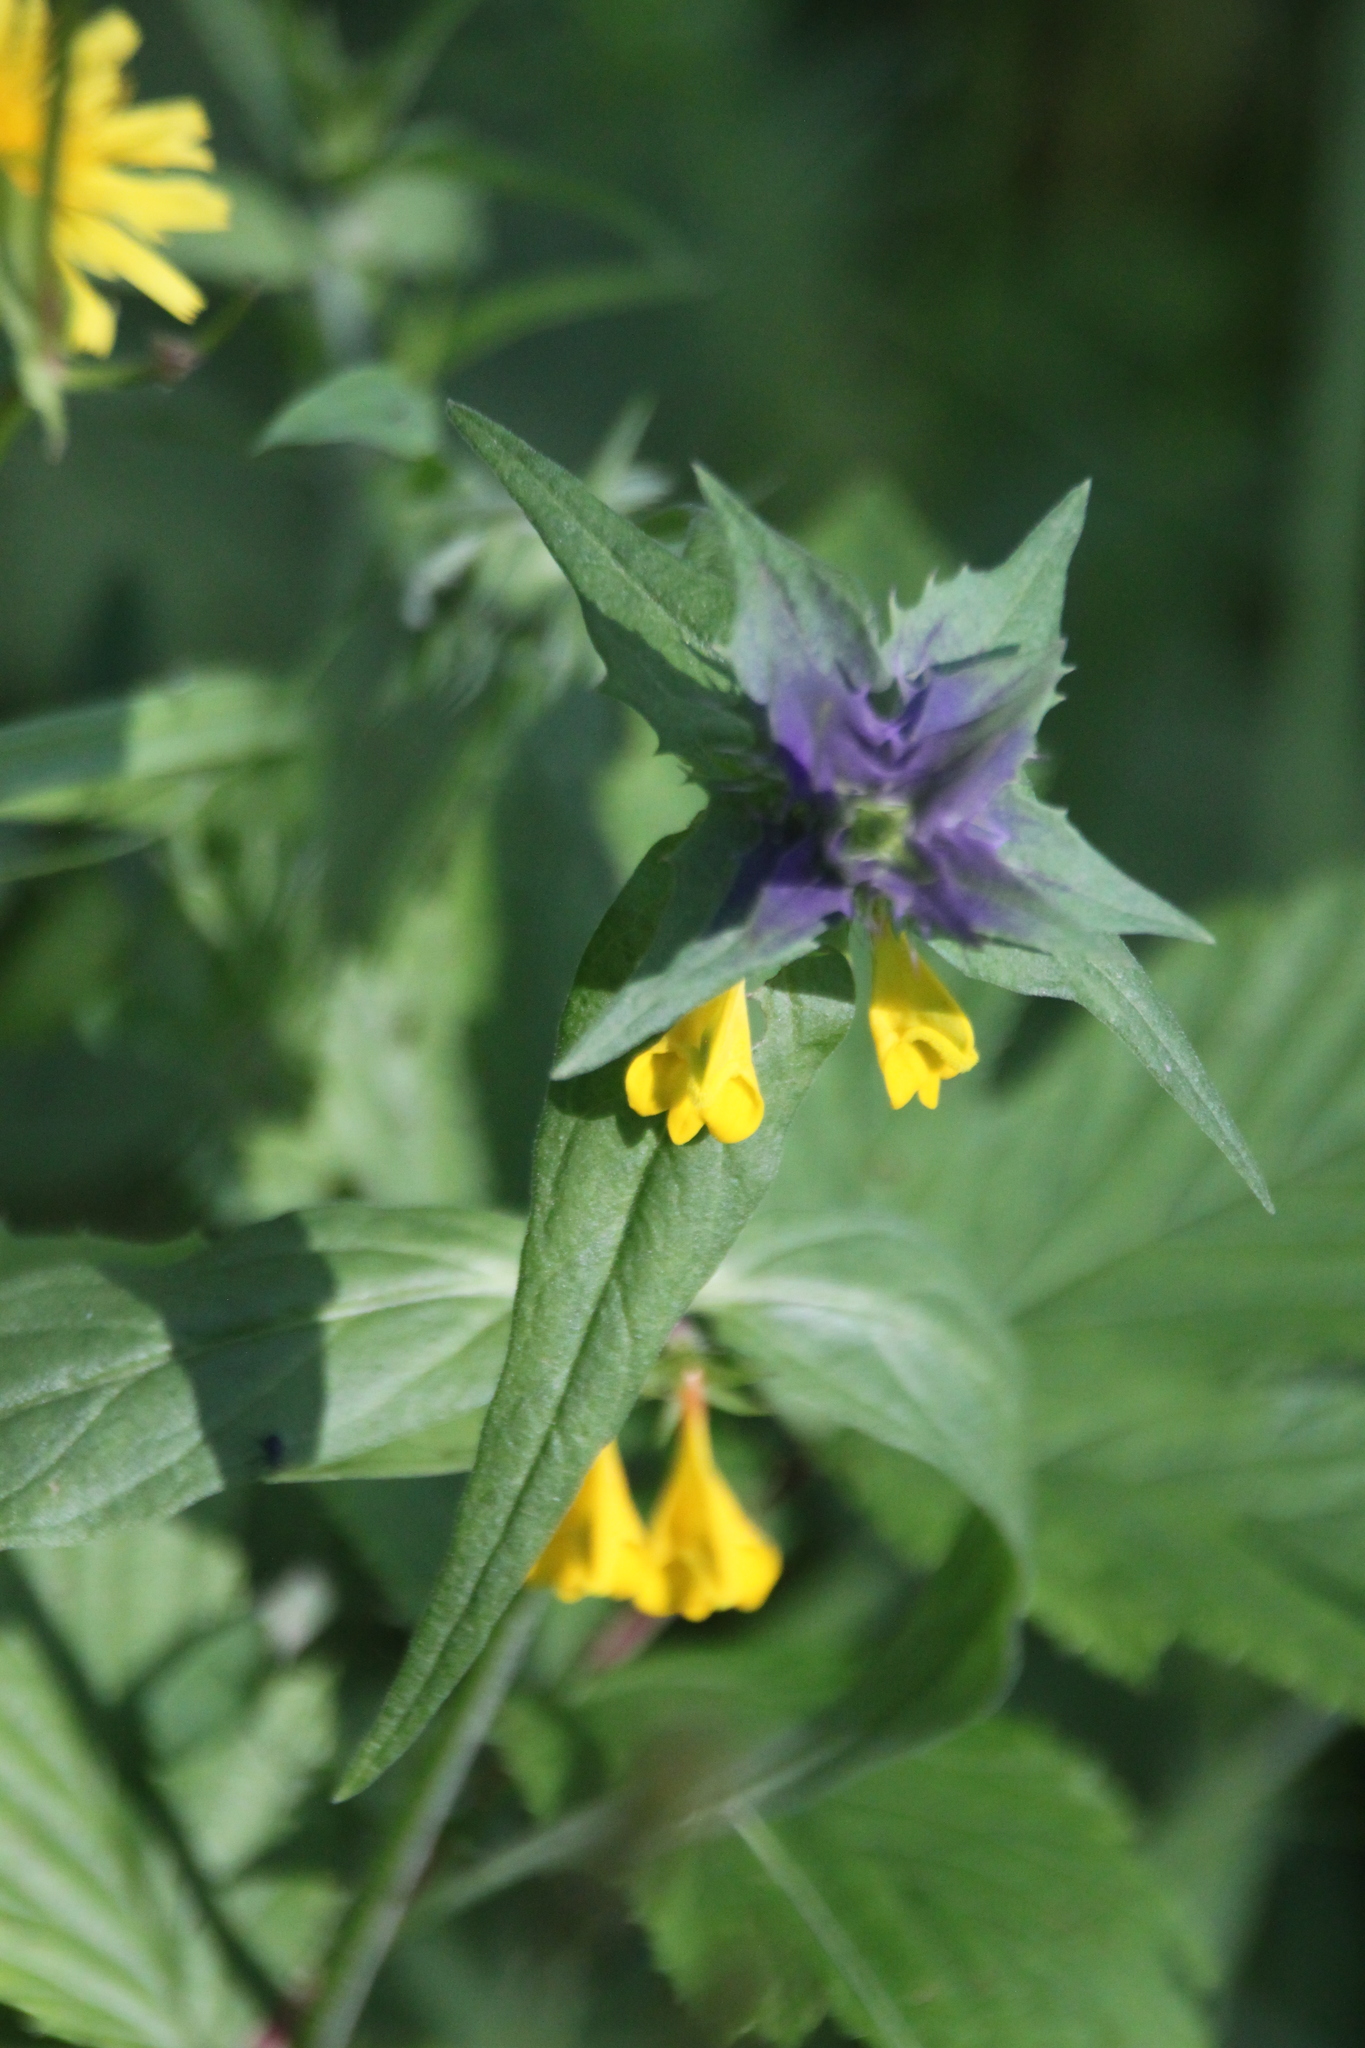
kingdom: Plantae
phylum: Tracheophyta
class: Magnoliopsida
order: Lamiales
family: Orobanchaceae
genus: Melampyrum
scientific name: Melampyrum nemorosum
